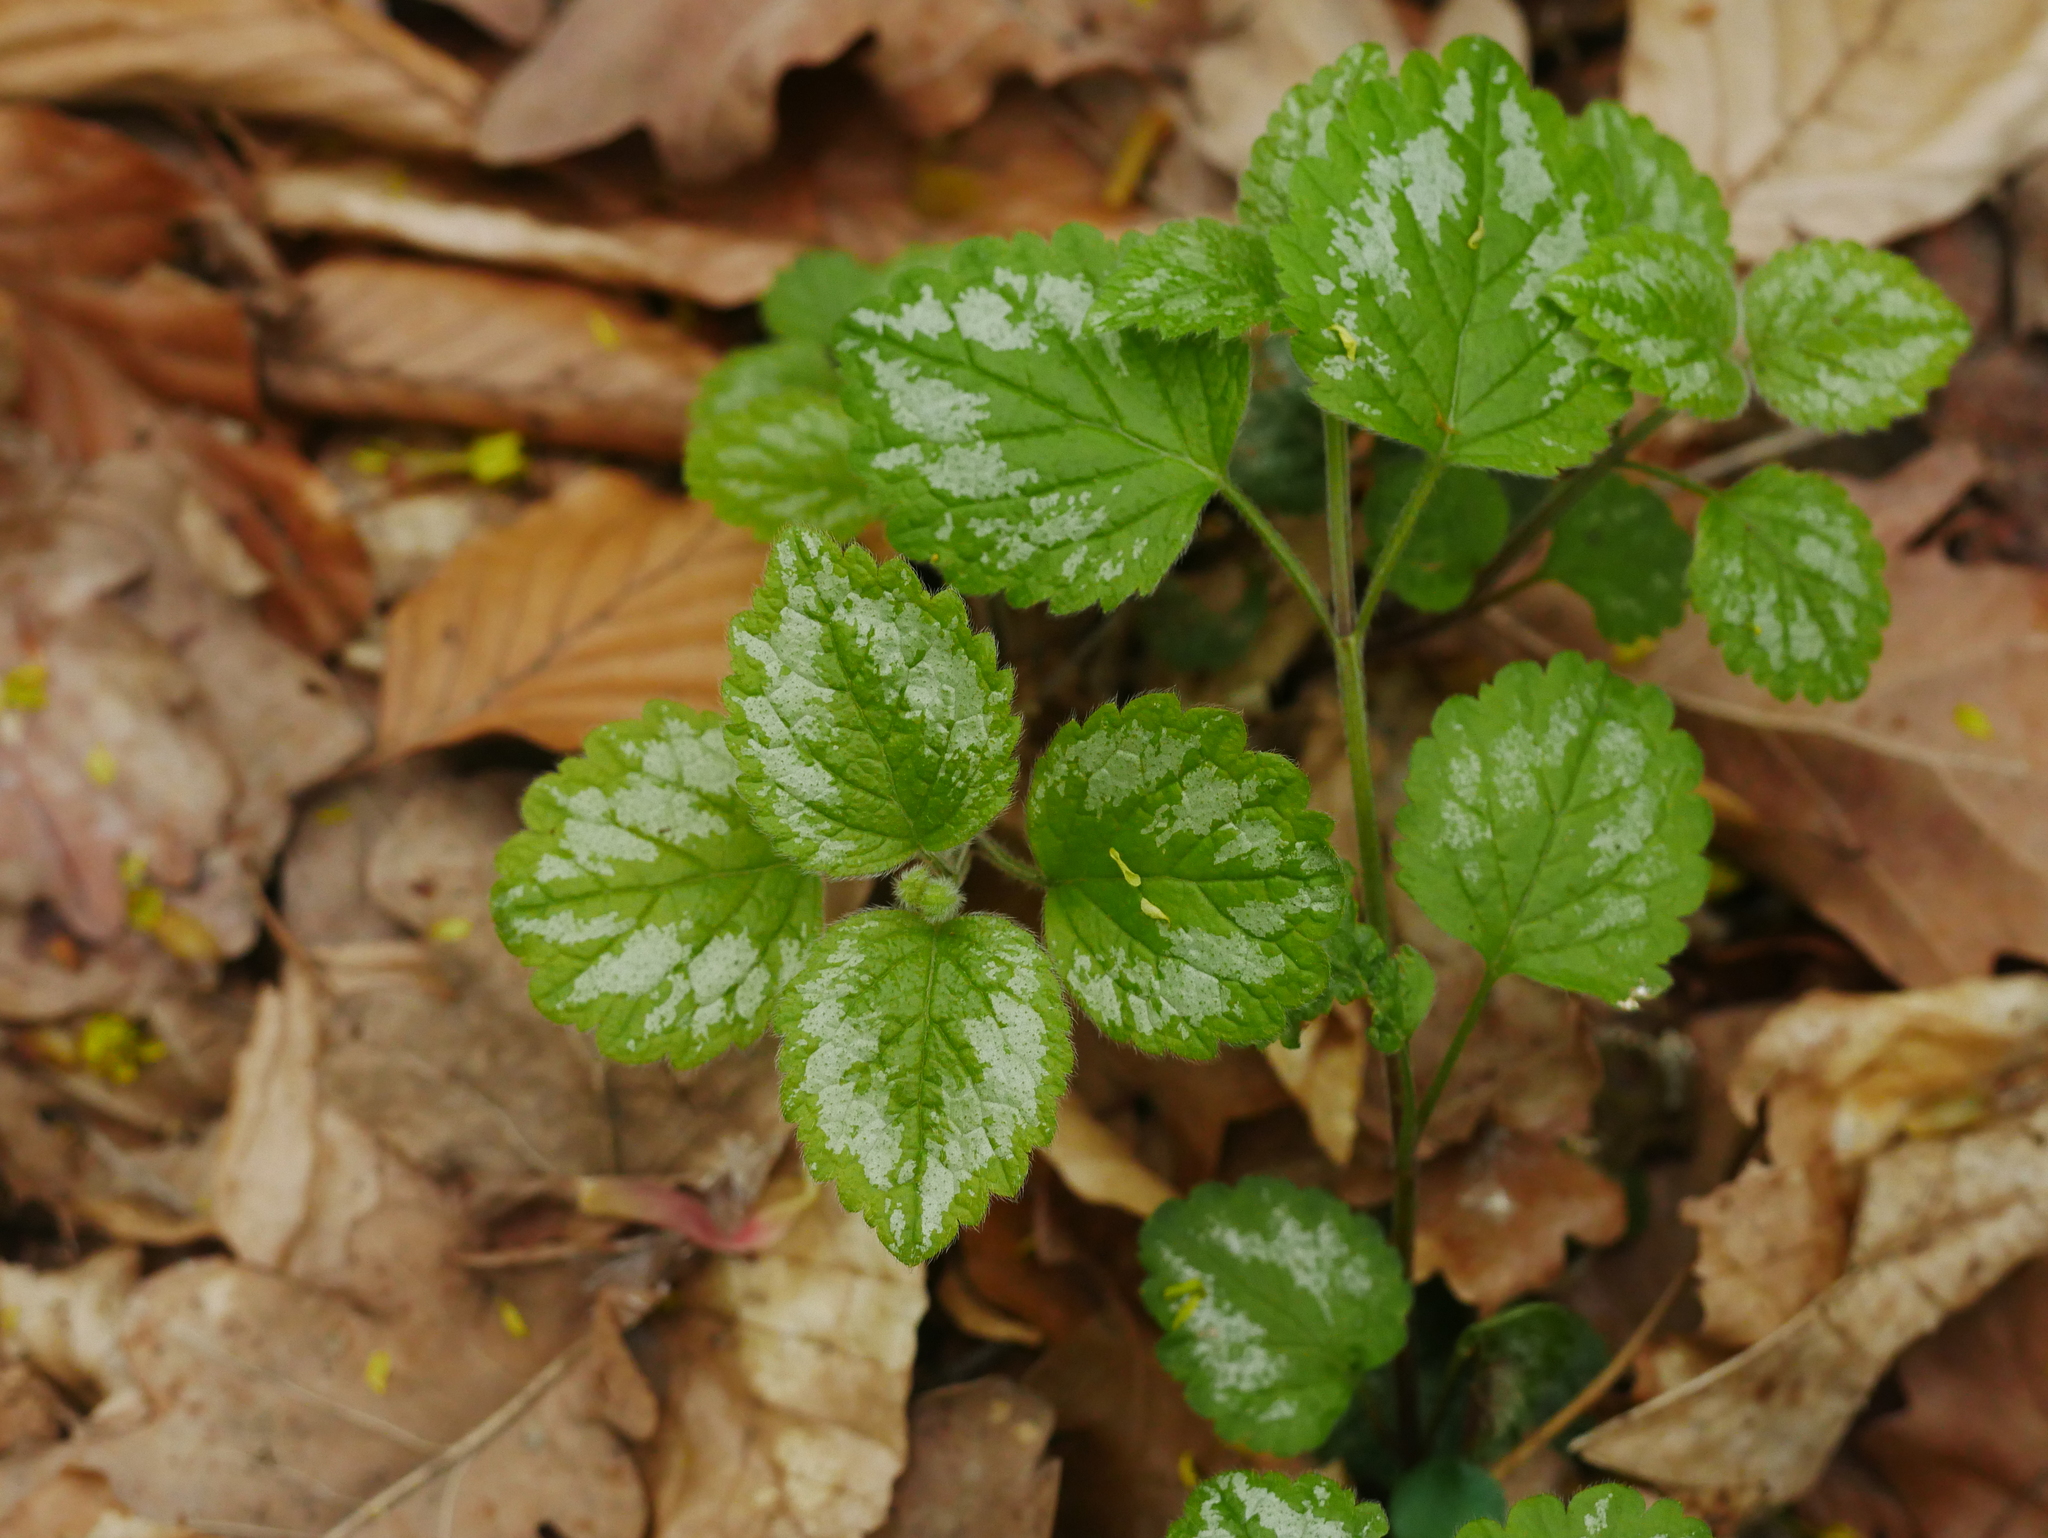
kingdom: Plantae
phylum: Tracheophyta
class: Magnoliopsida
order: Lamiales
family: Lamiaceae
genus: Lamium
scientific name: Lamium galeobdolon
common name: Yellow archangel
